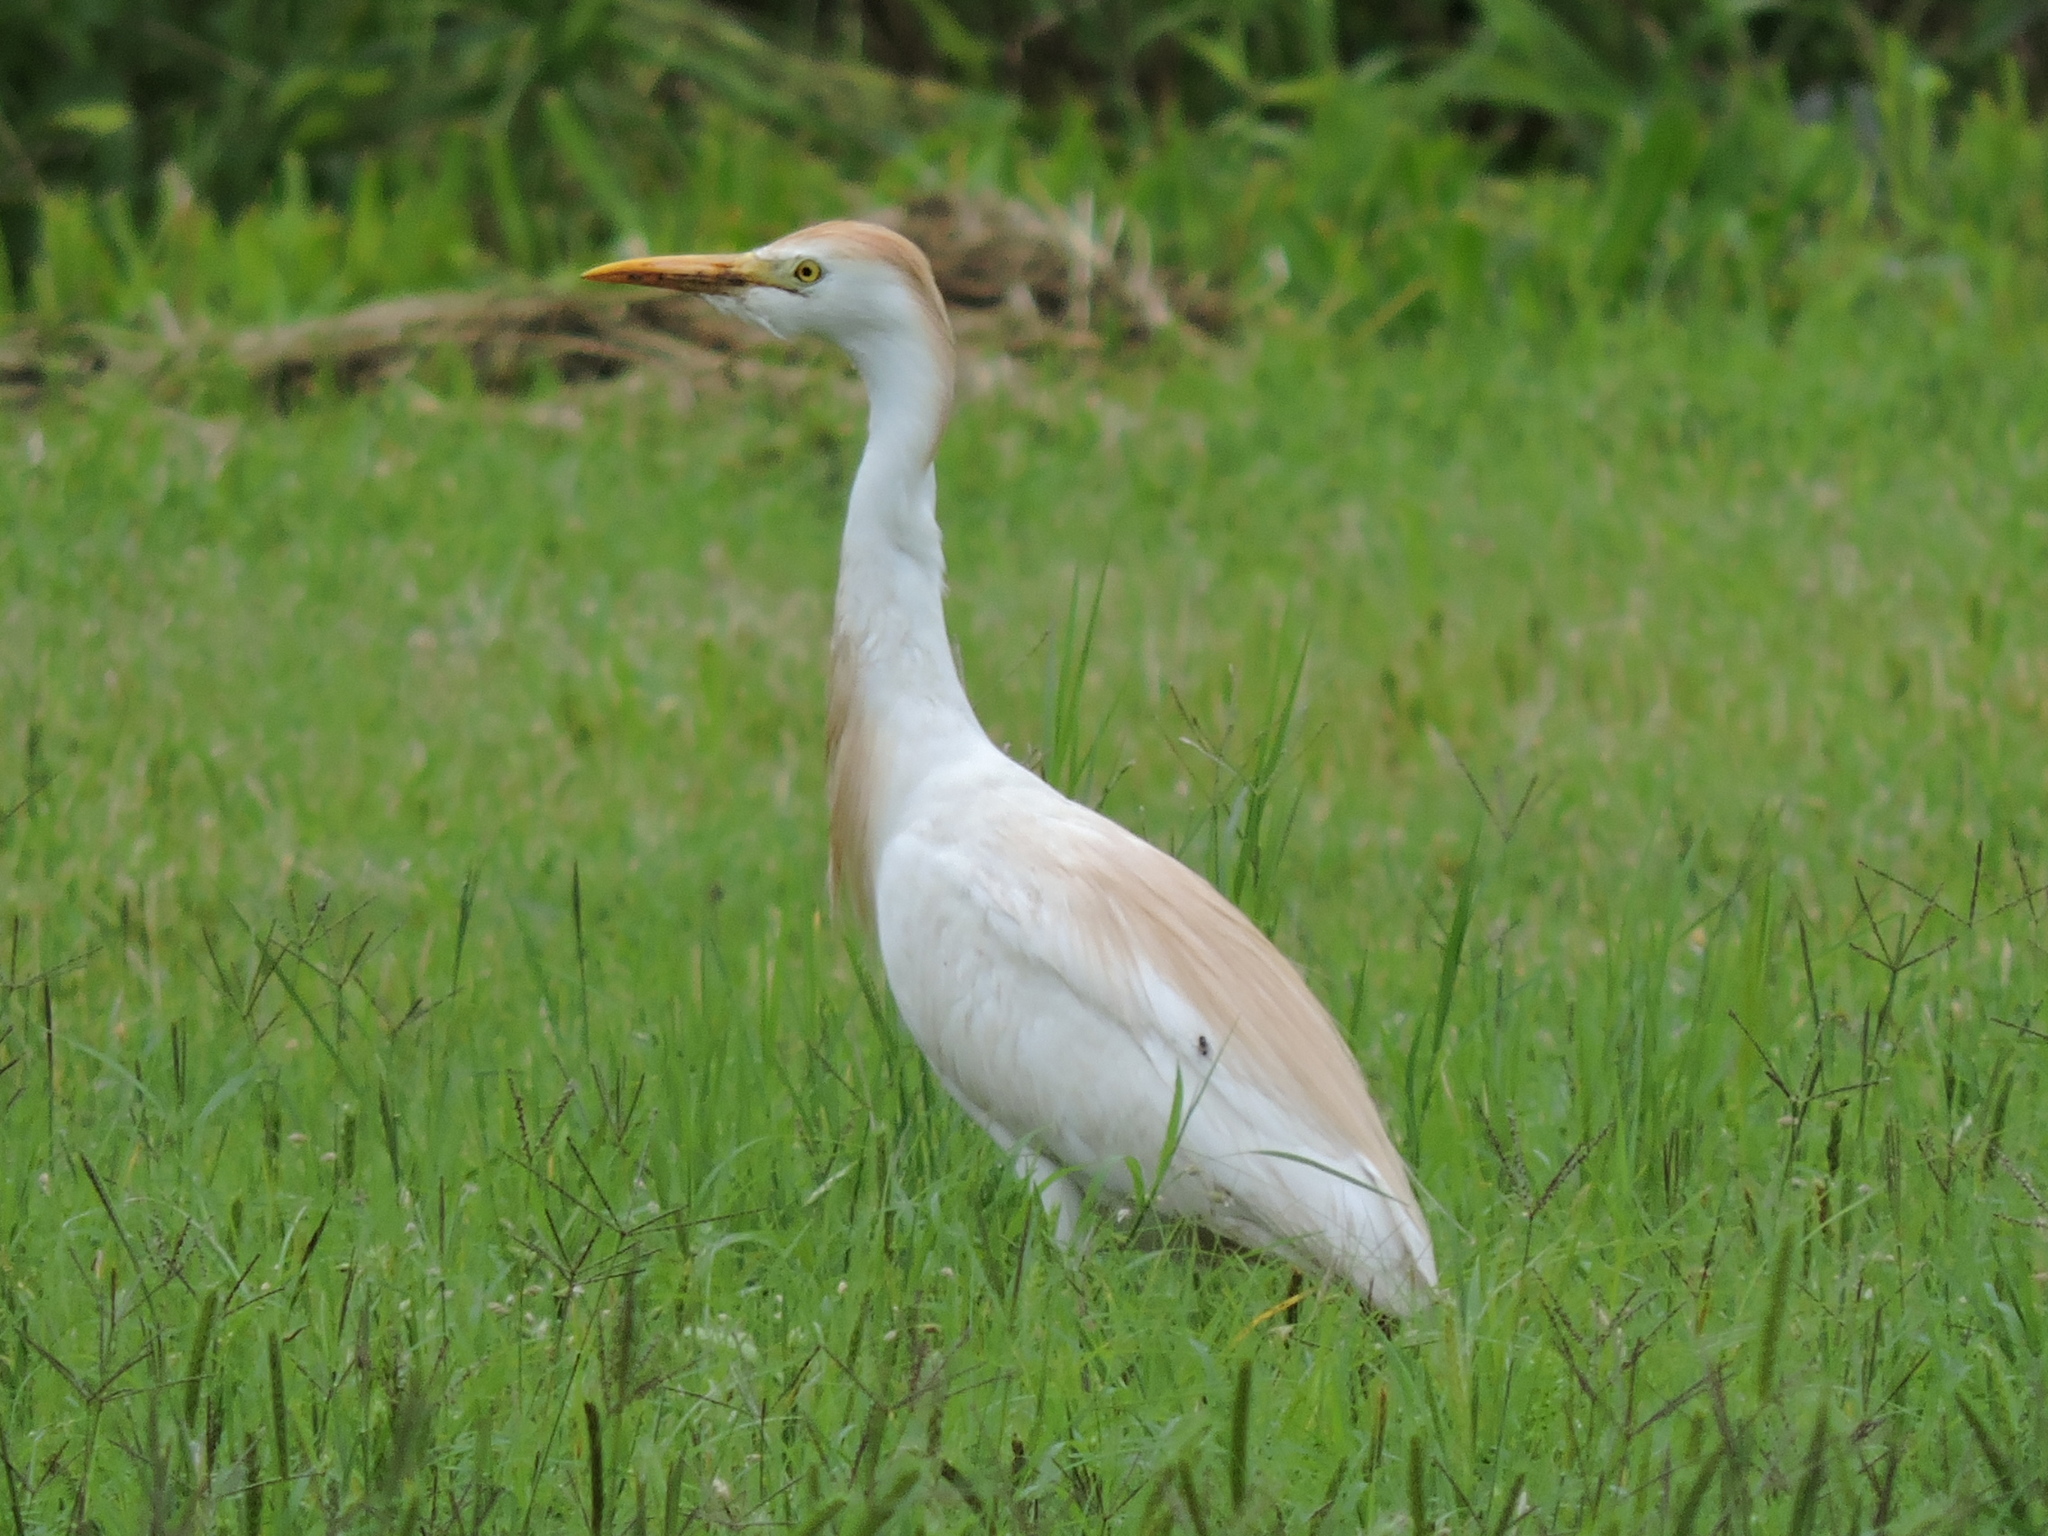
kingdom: Animalia
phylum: Chordata
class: Aves
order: Pelecaniformes
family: Ardeidae
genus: Bubulcus
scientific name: Bubulcus ibis
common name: Cattle egret
